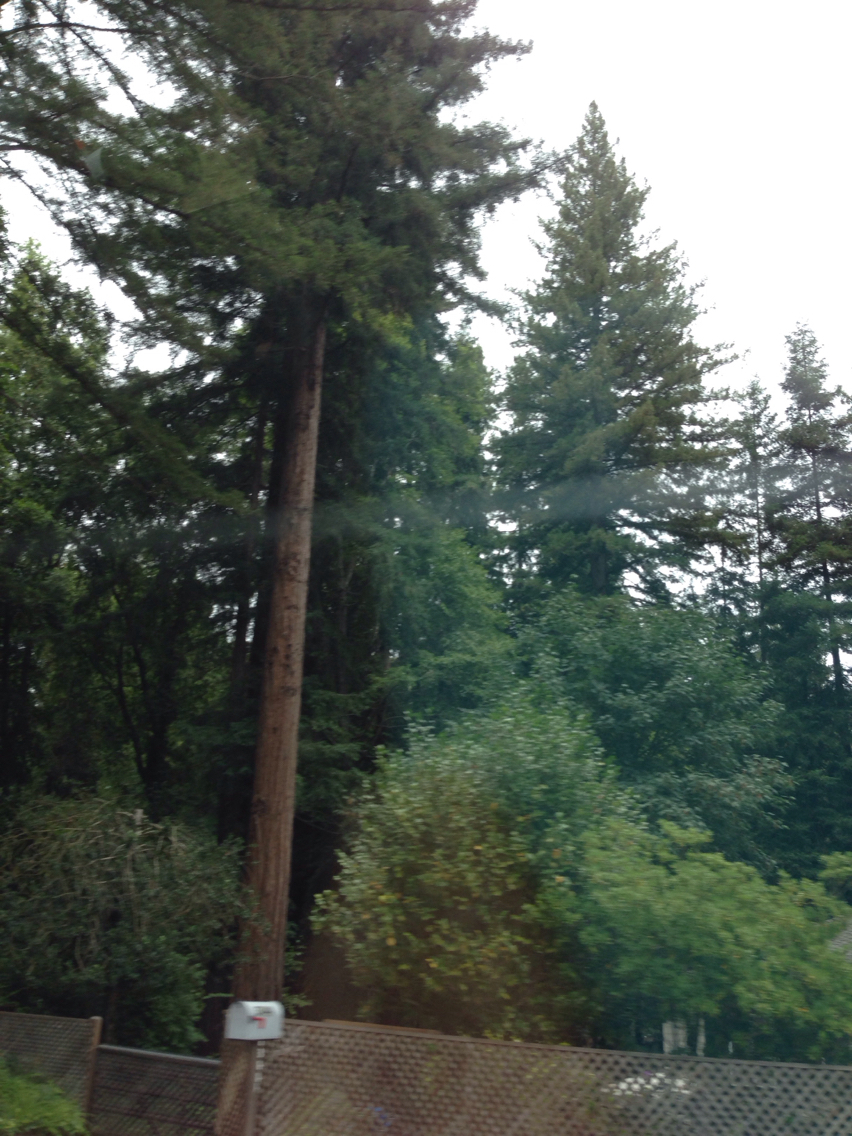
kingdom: Plantae
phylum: Tracheophyta
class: Pinopsida
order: Pinales
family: Cupressaceae
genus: Sequoia
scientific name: Sequoia sempervirens
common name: Coast redwood
